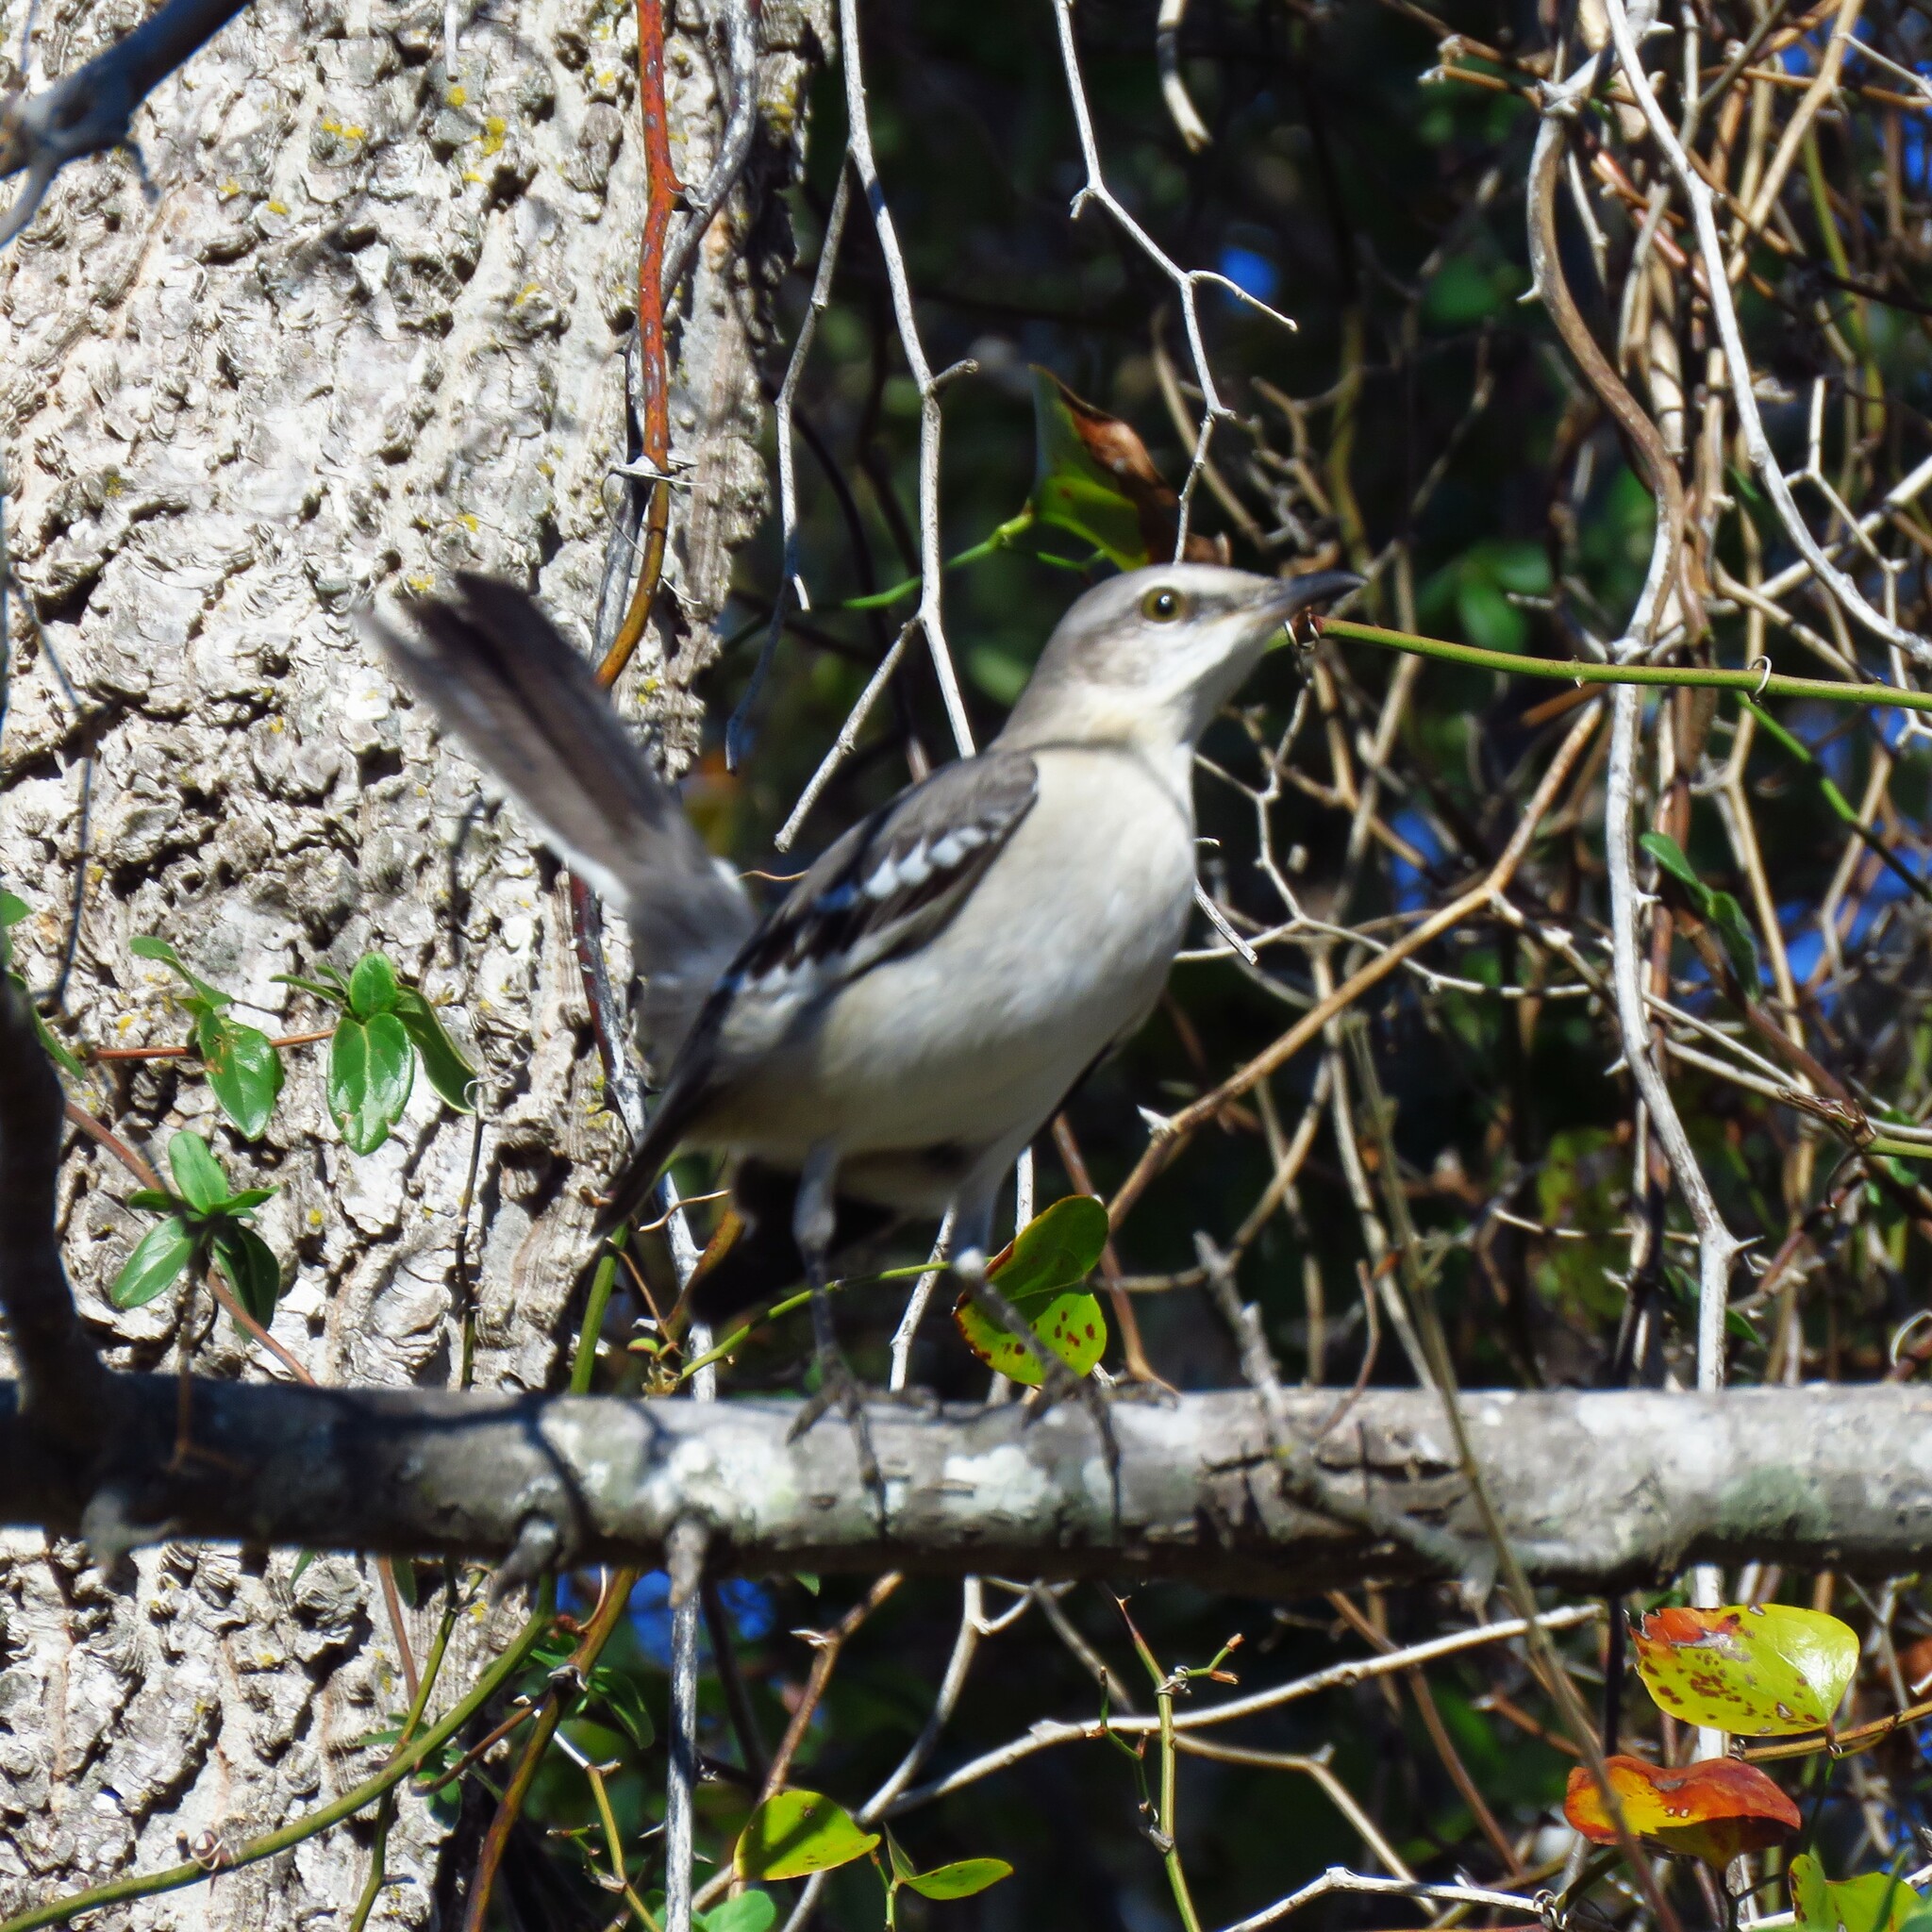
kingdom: Animalia
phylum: Chordata
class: Aves
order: Passeriformes
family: Mimidae
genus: Mimus
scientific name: Mimus polyglottos
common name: Northern mockingbird
